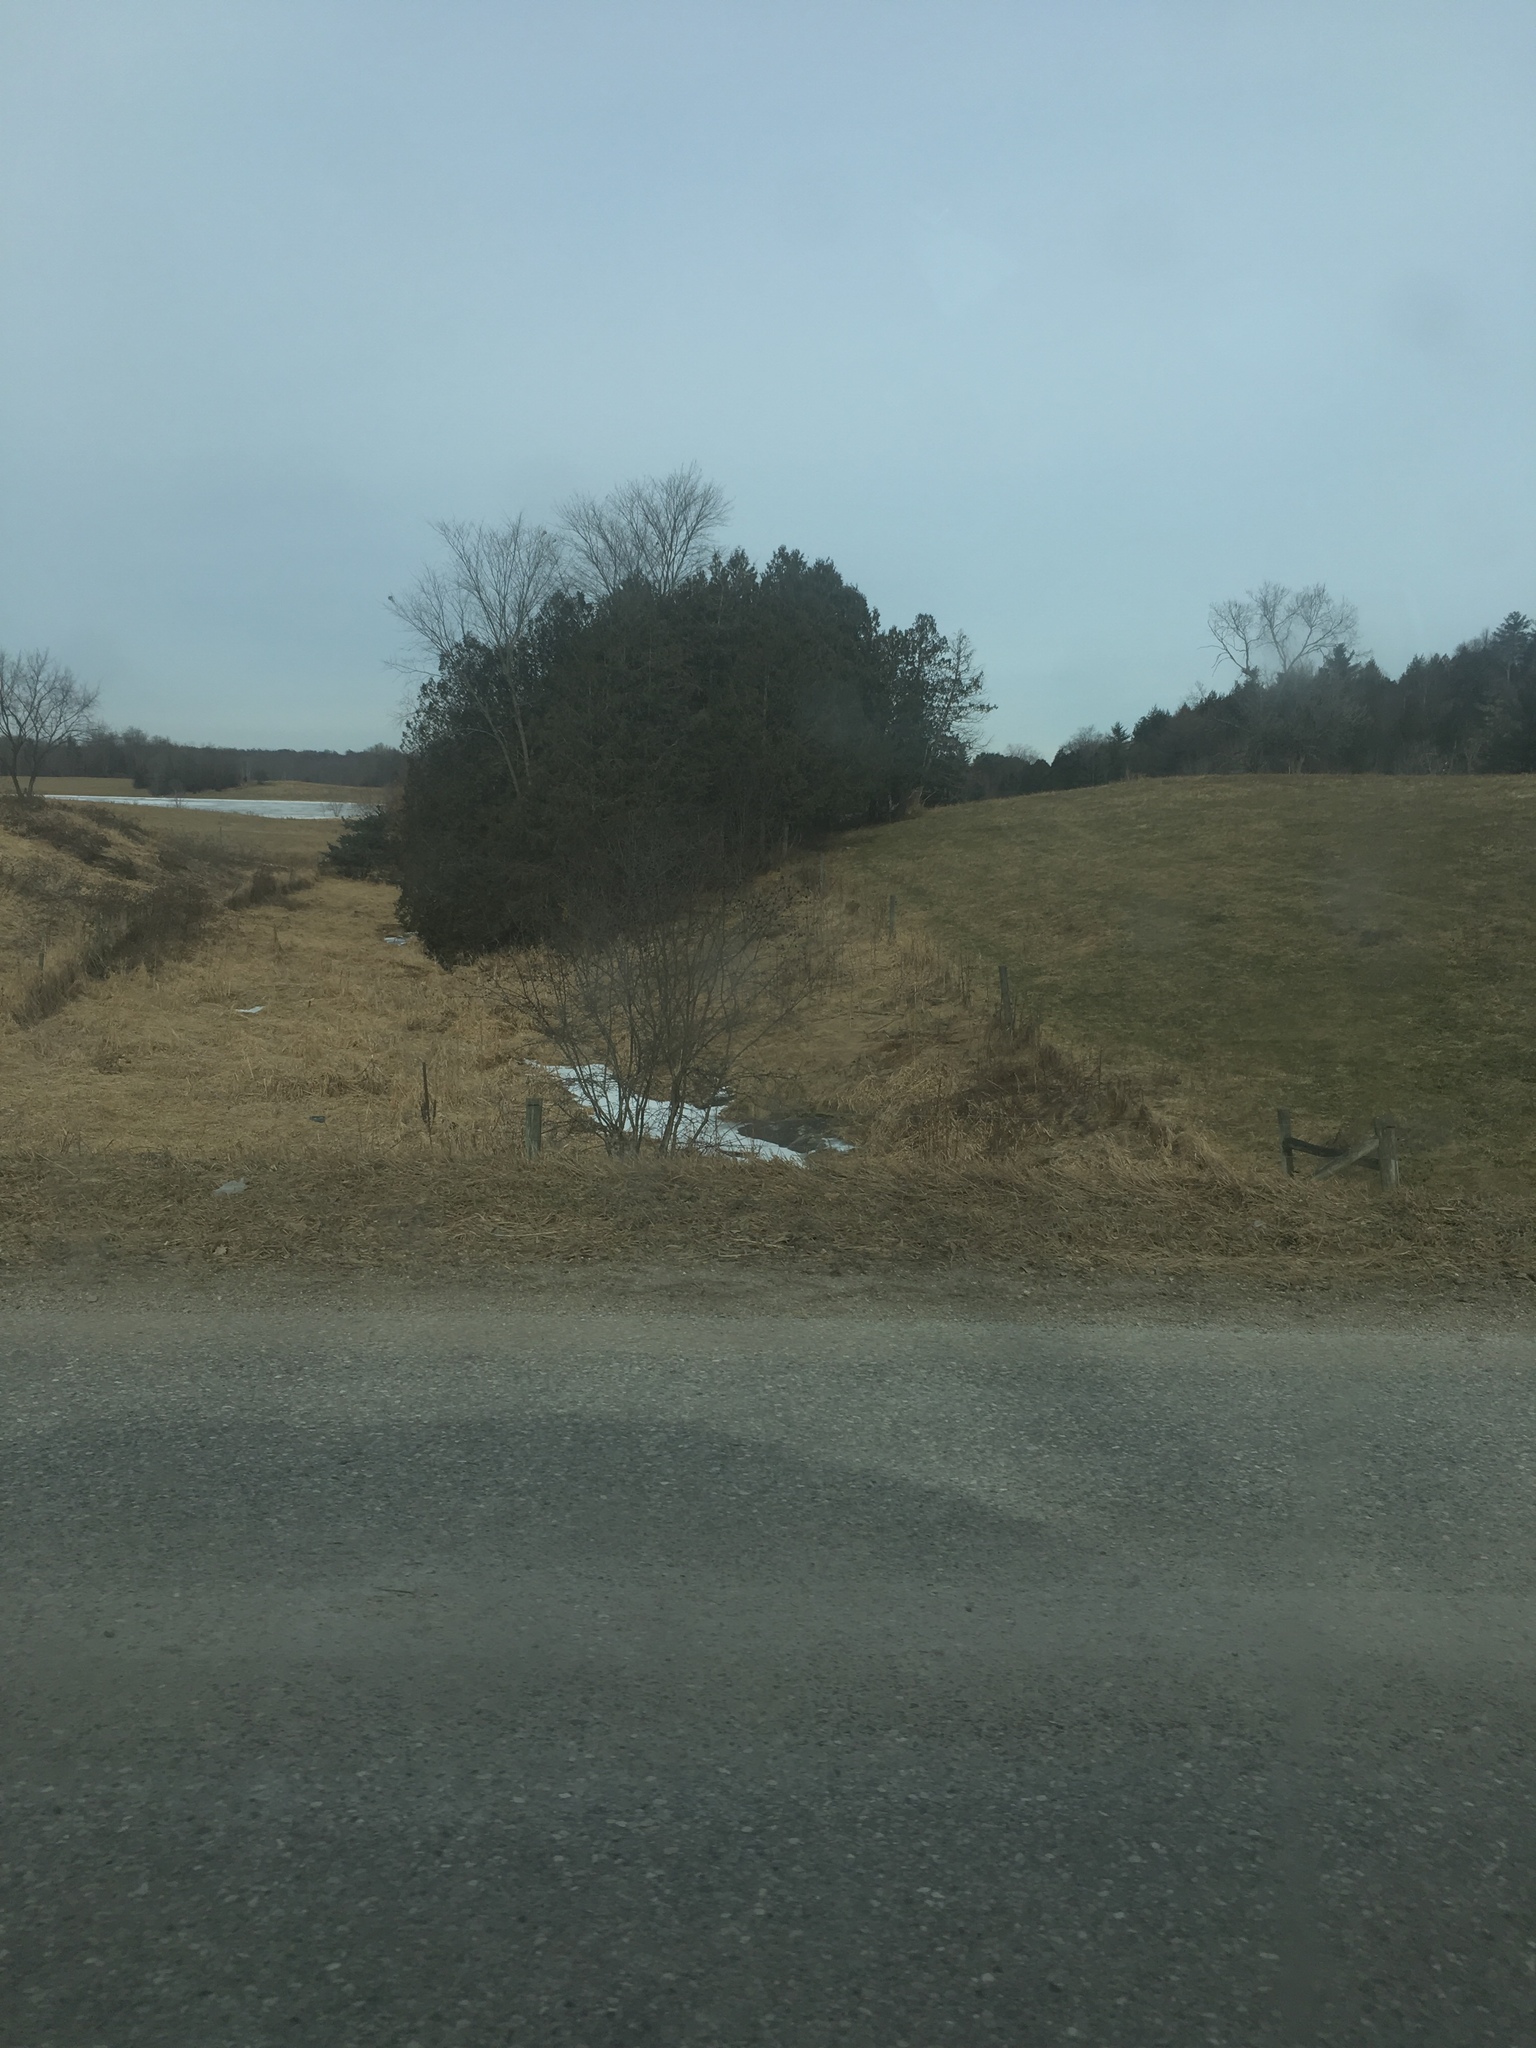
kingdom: Plantae
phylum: Tracheophyta
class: Pinopsida
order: Pinales
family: Cupressaceae
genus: Thuja
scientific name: Thuja occidentalis
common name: Northern white-cedar
